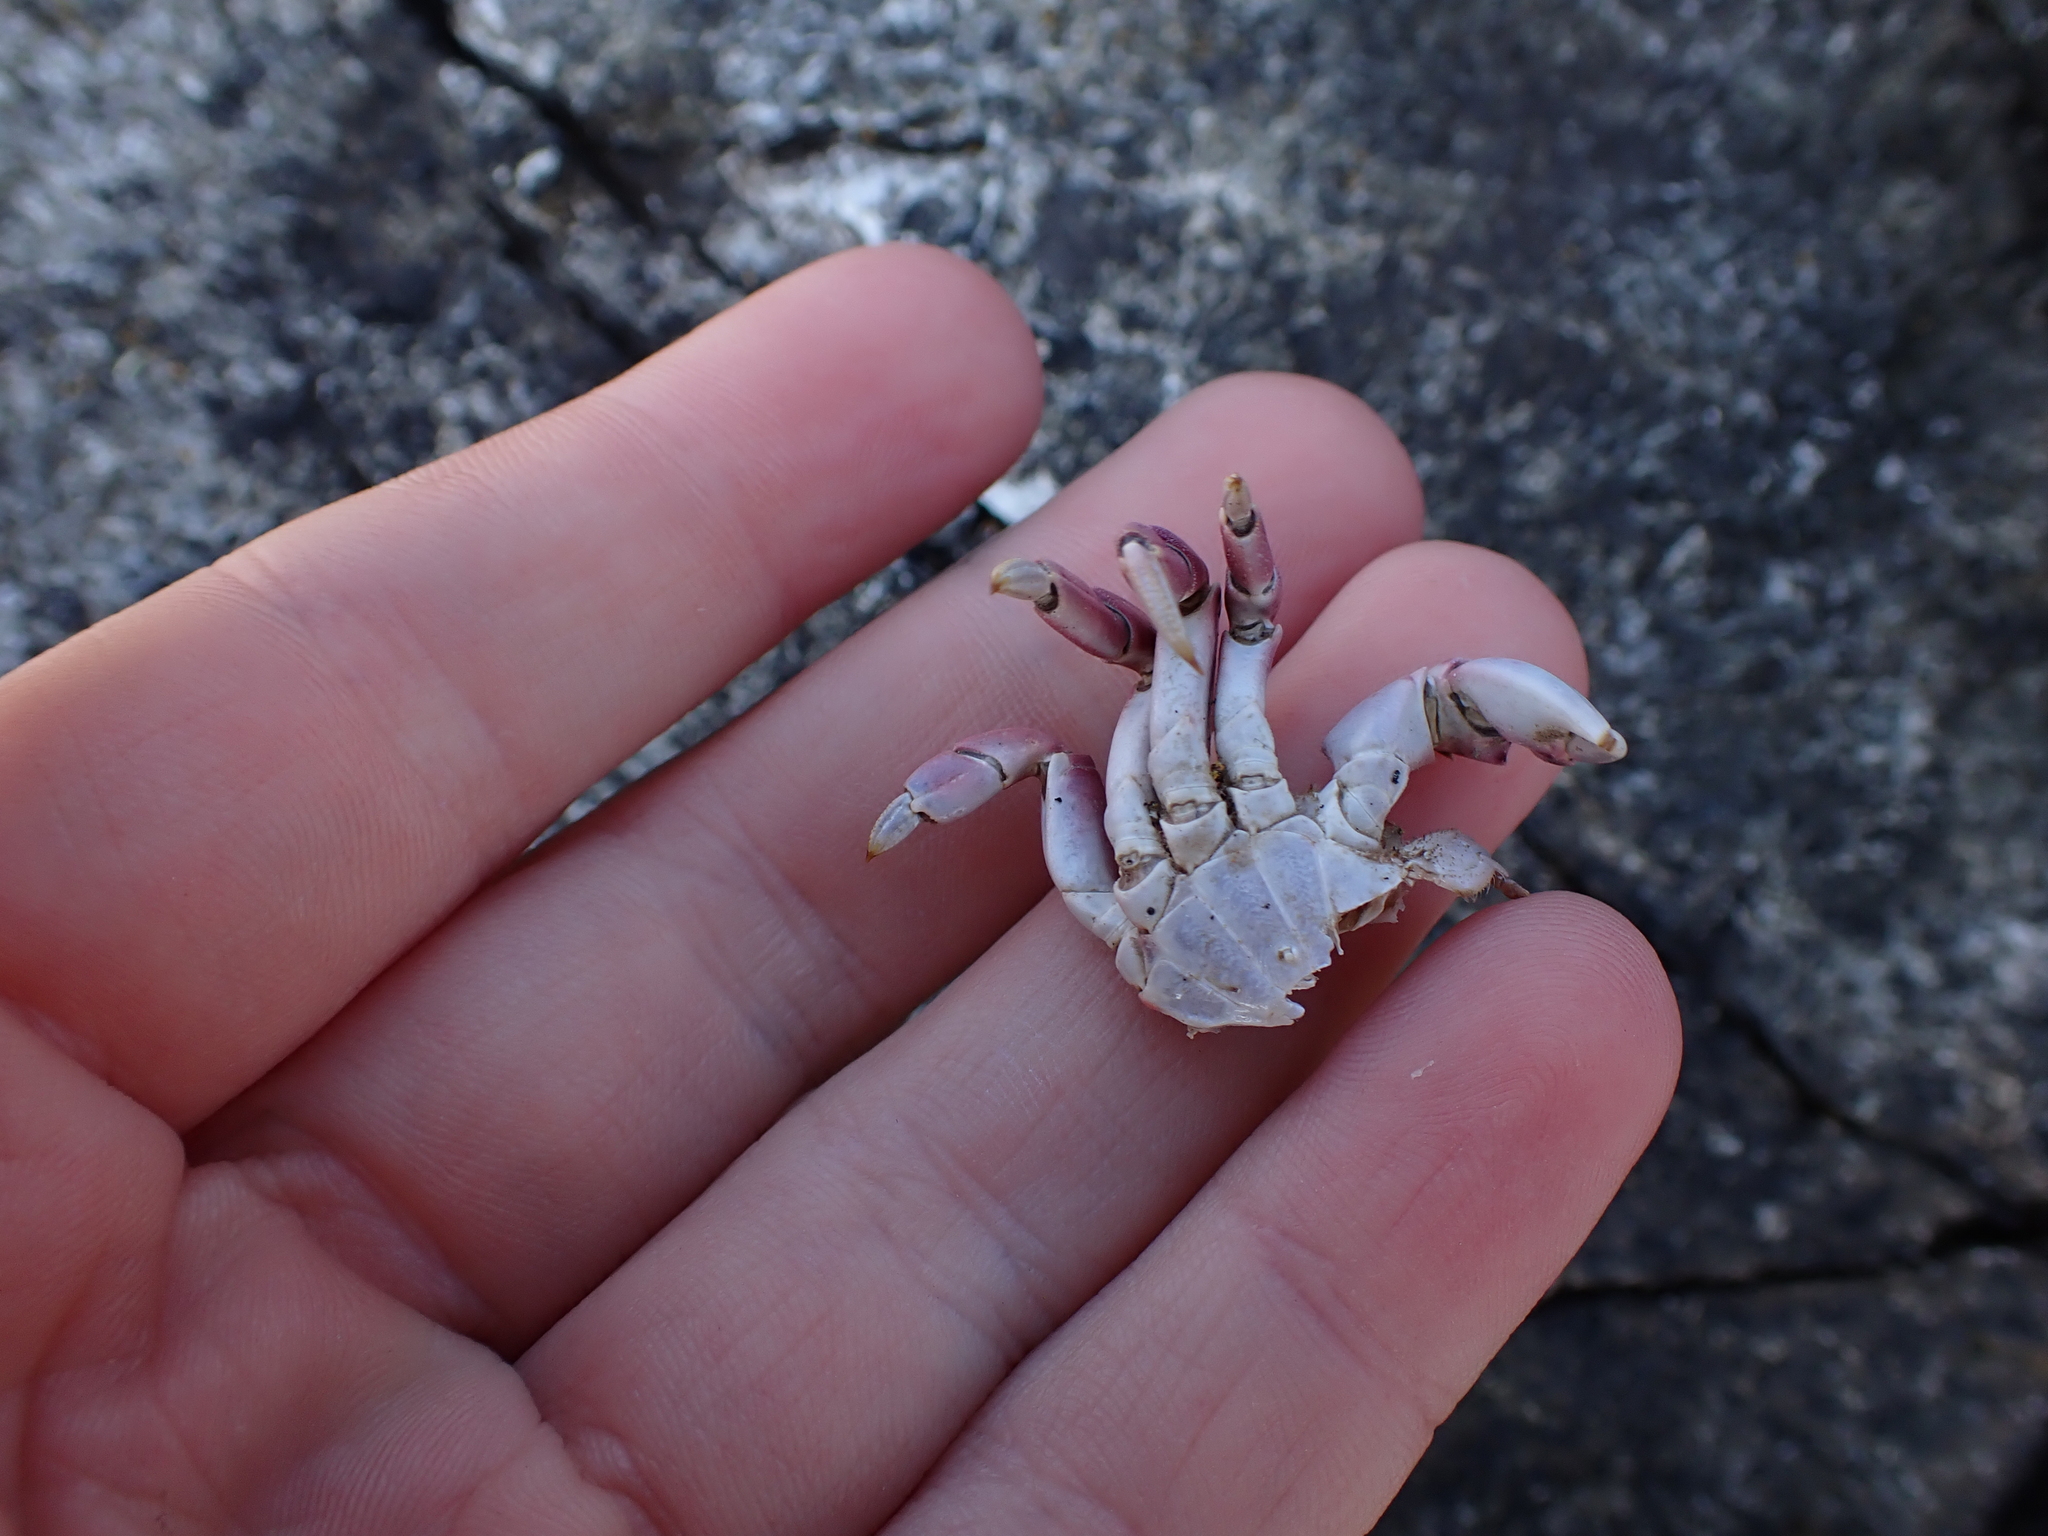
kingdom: Animalia
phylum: Arthropoda
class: Malacostraca
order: Decapoda
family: Varunidae
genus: Hemigrapsus
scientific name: Hemigrapsus nudus
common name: Purple shore crab
